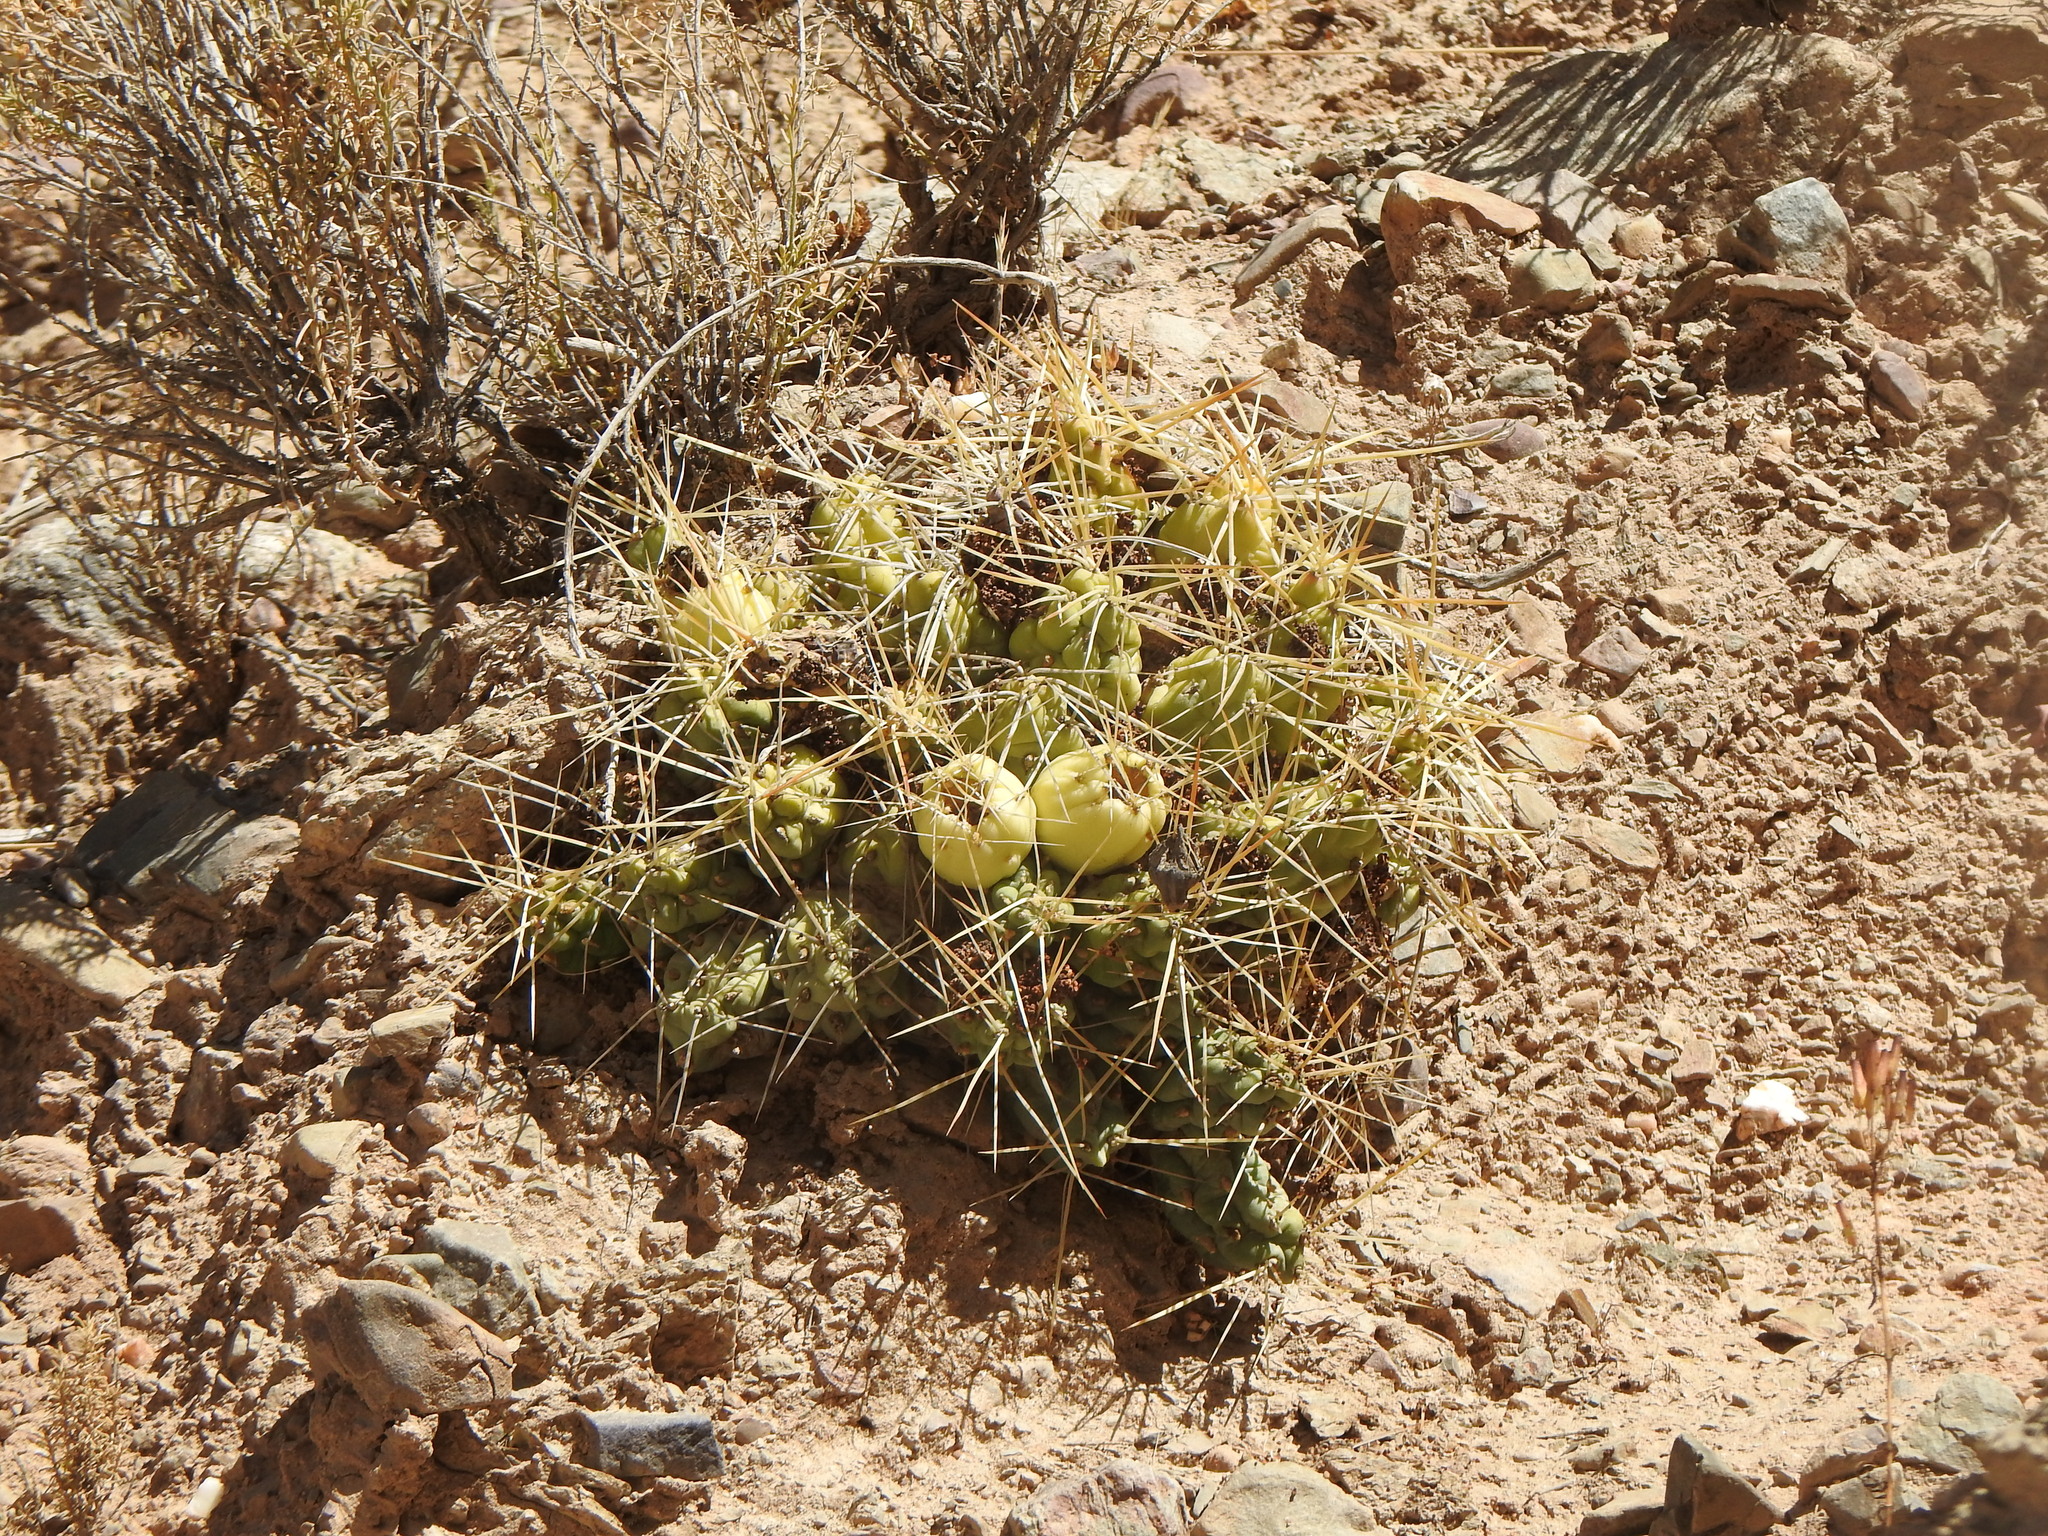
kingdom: Plantae
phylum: Tracheophyta
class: Magnoliopsida
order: Caryophyllales
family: Cactaceae
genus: Cumulopuntia
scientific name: Cumulopuntia boliviana
